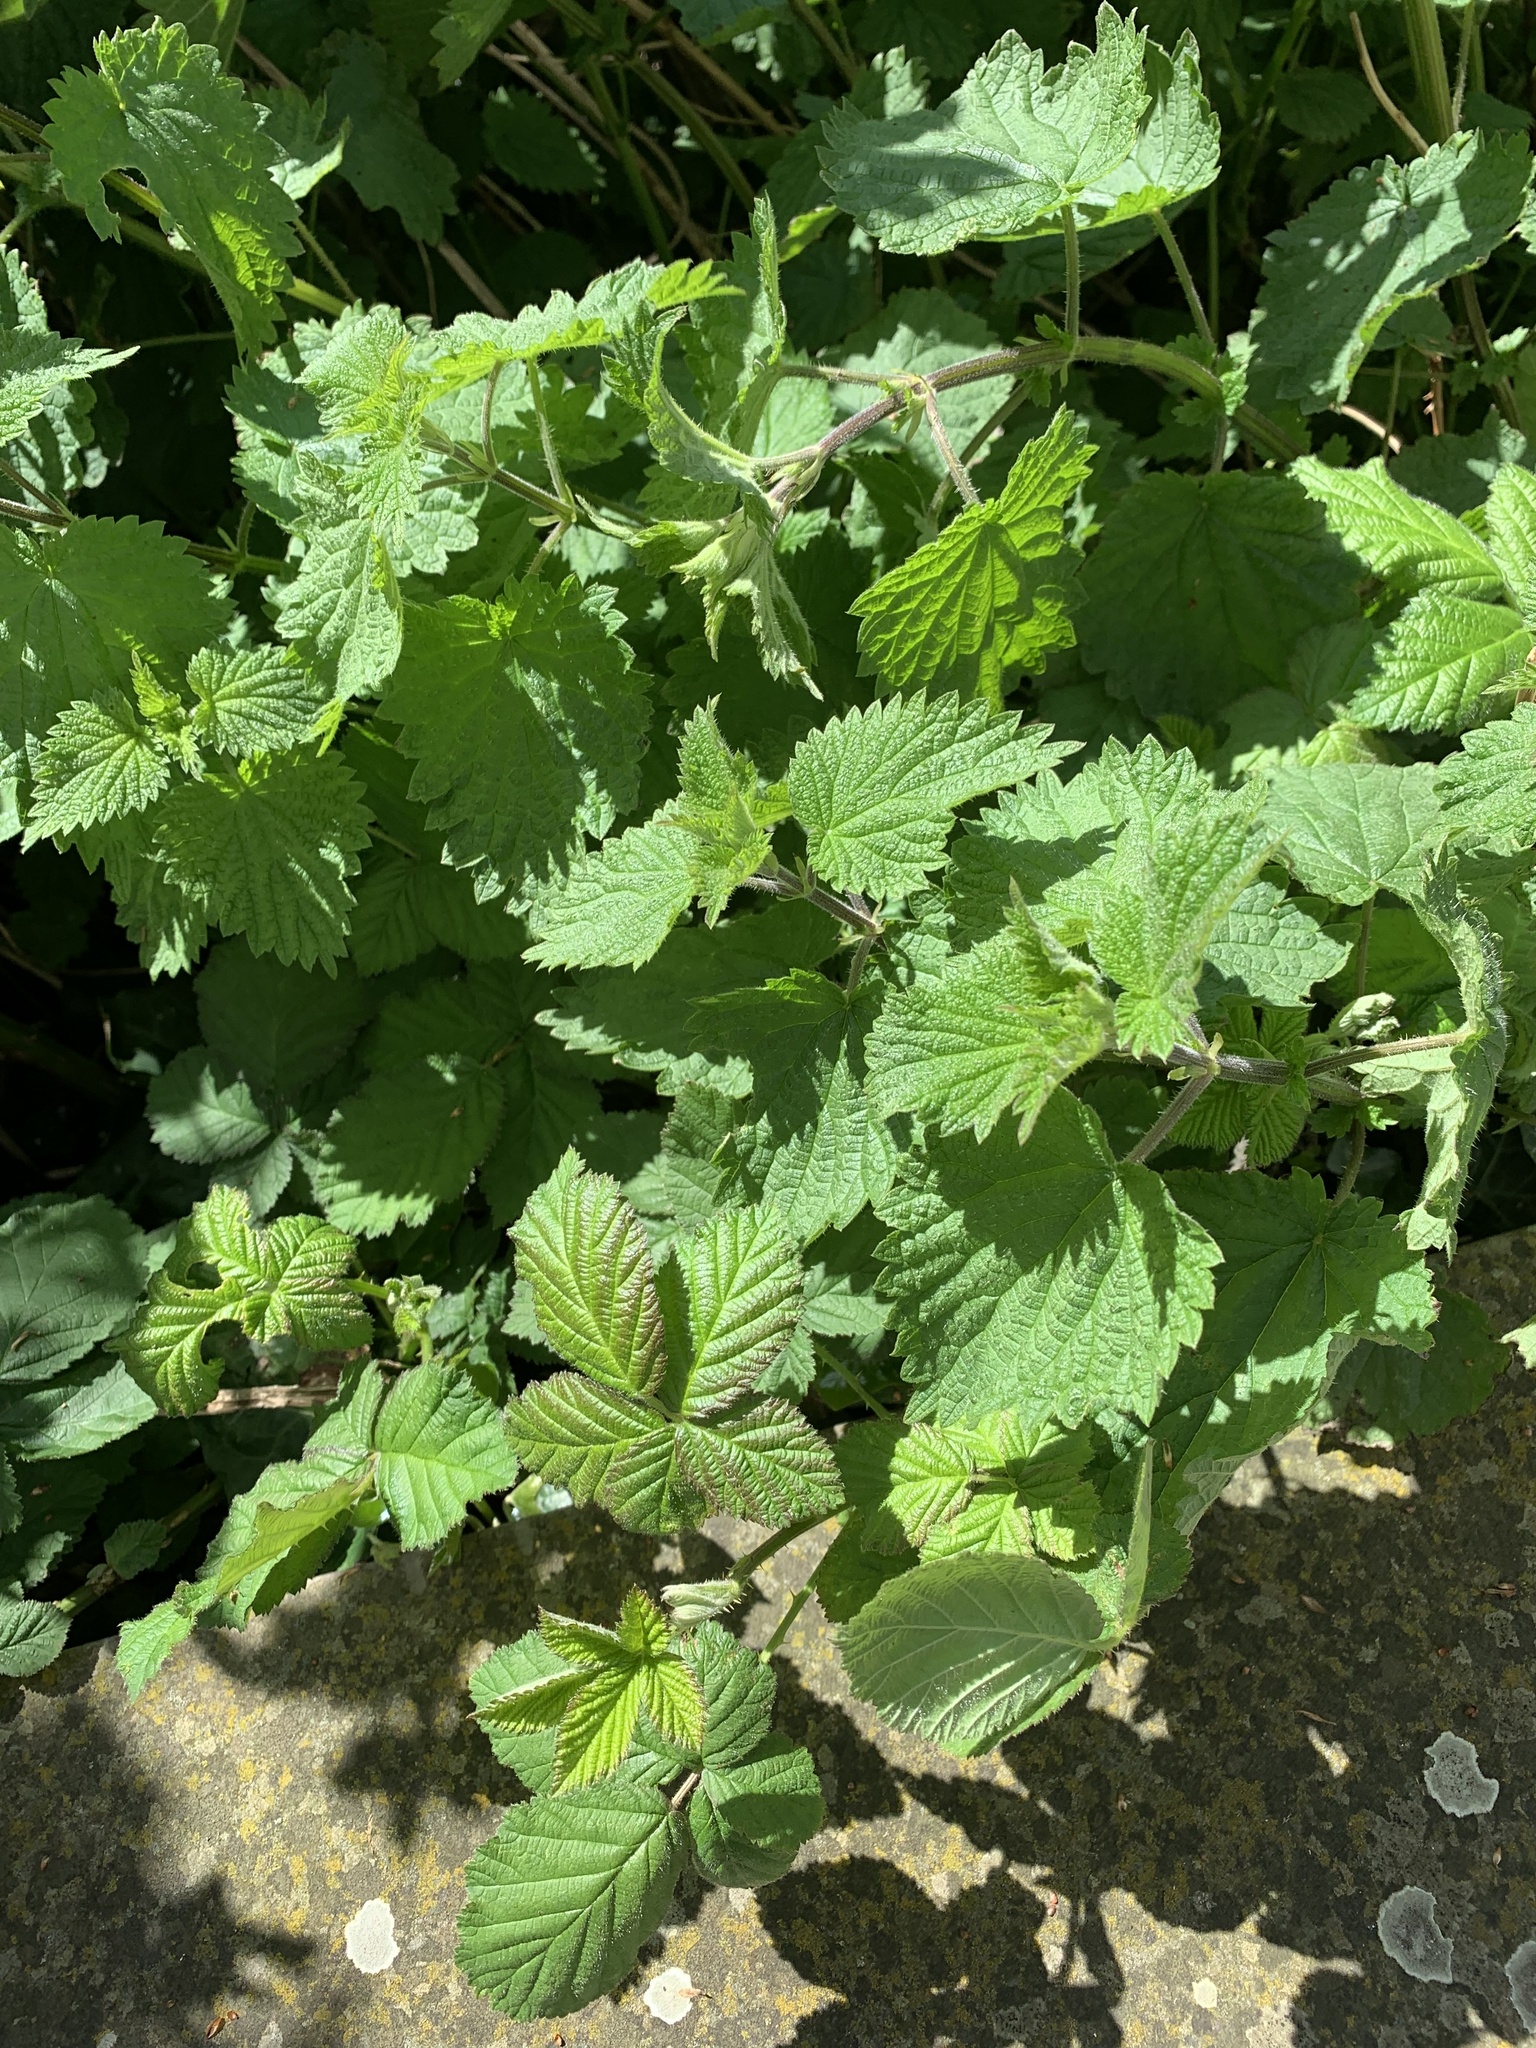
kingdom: Plantae
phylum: Tracheophyta
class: Magnoliopsida
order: Rosales
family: Urticaceae
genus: Urtica
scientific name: Urtica dioica
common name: Common nettle
